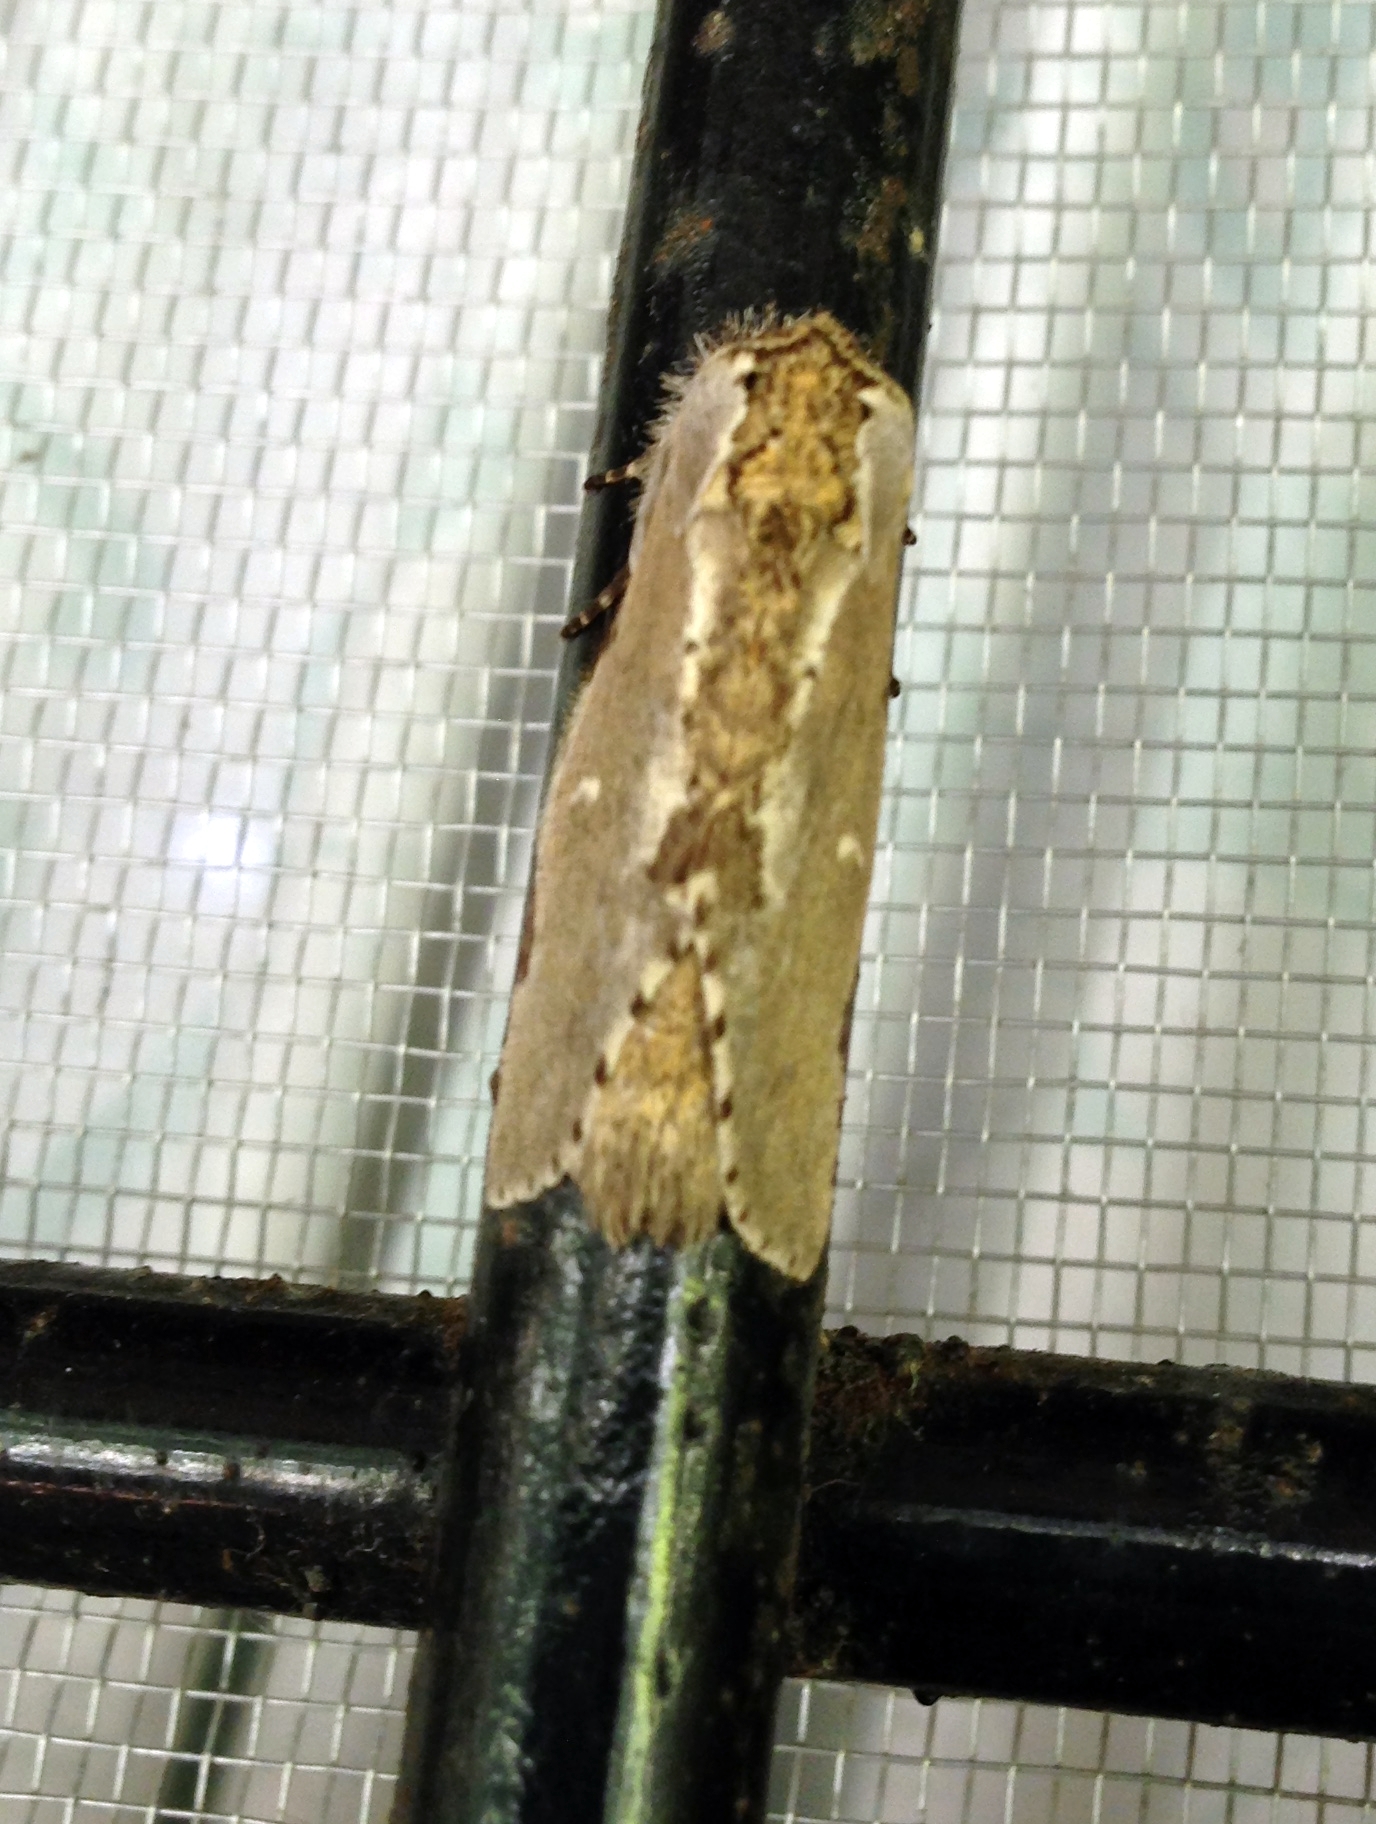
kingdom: Animalia
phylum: Arthropoda
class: Insecta
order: Lepidoptera
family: Notodontidae
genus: Malocampa
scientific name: Malocampa albolineata
